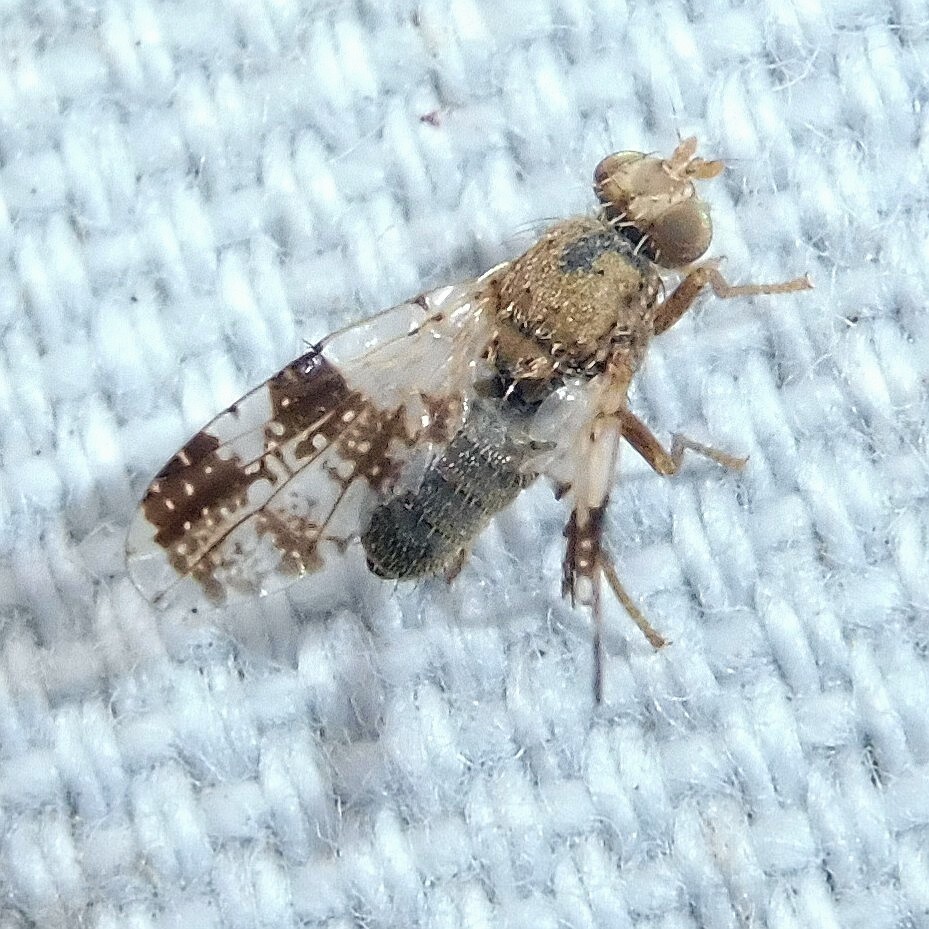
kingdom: Animalia
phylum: Arthropoda
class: Insecta
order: Diptera
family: Tephritidae
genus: Tephritis
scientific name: Tephritis formosa
